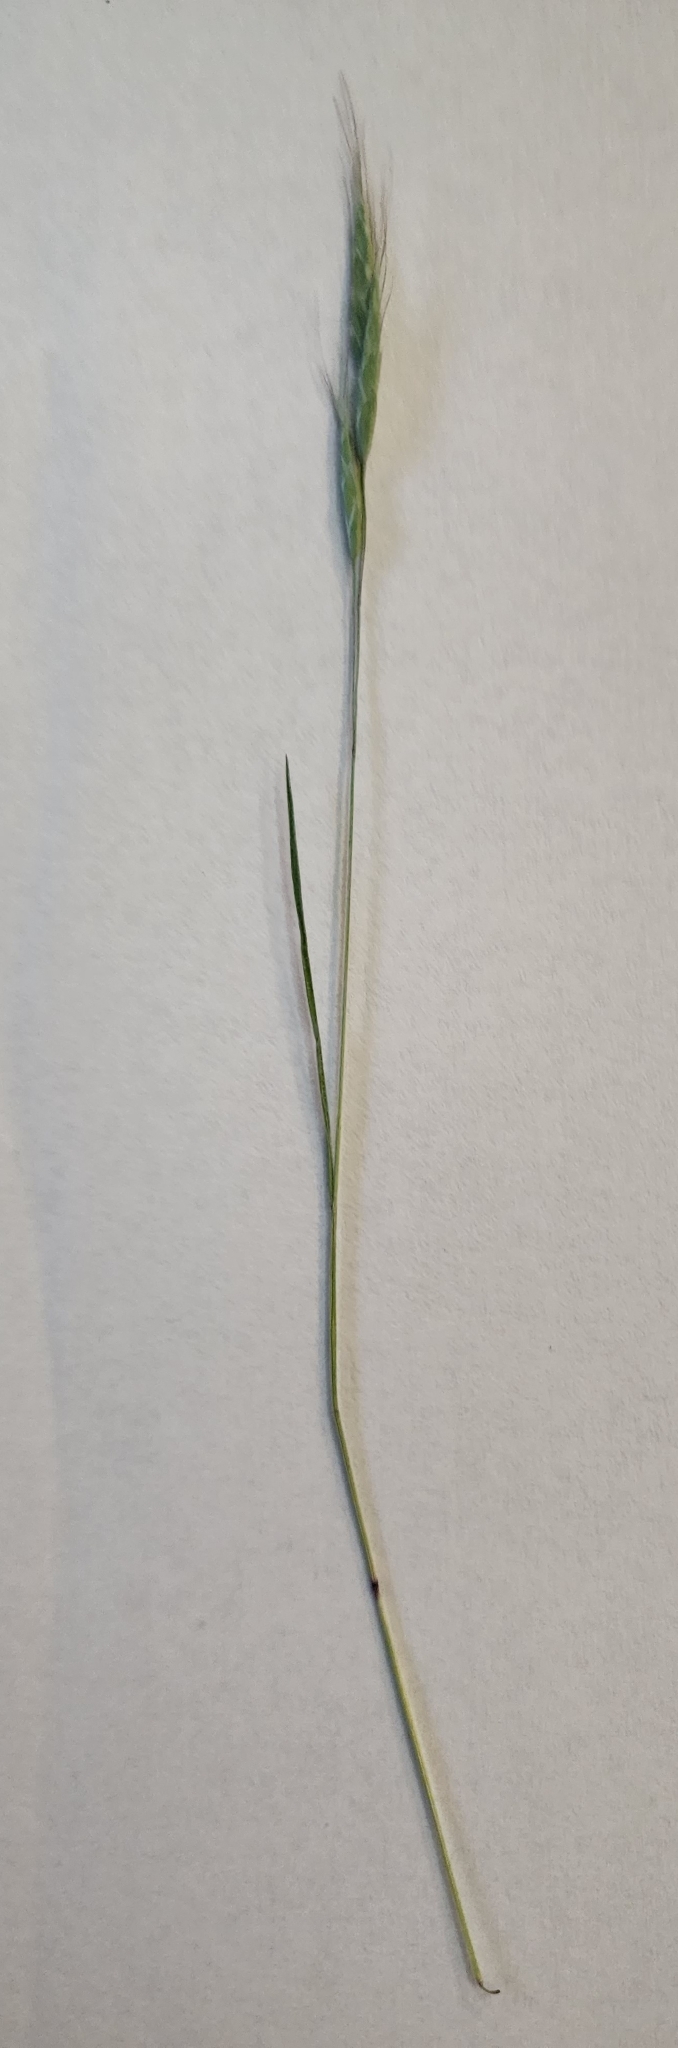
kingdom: Plantae
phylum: Tracheophyta
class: Liliopsida
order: Poales
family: Poaceae
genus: Bromus
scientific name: Bromus japonicus
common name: Japanese brome
